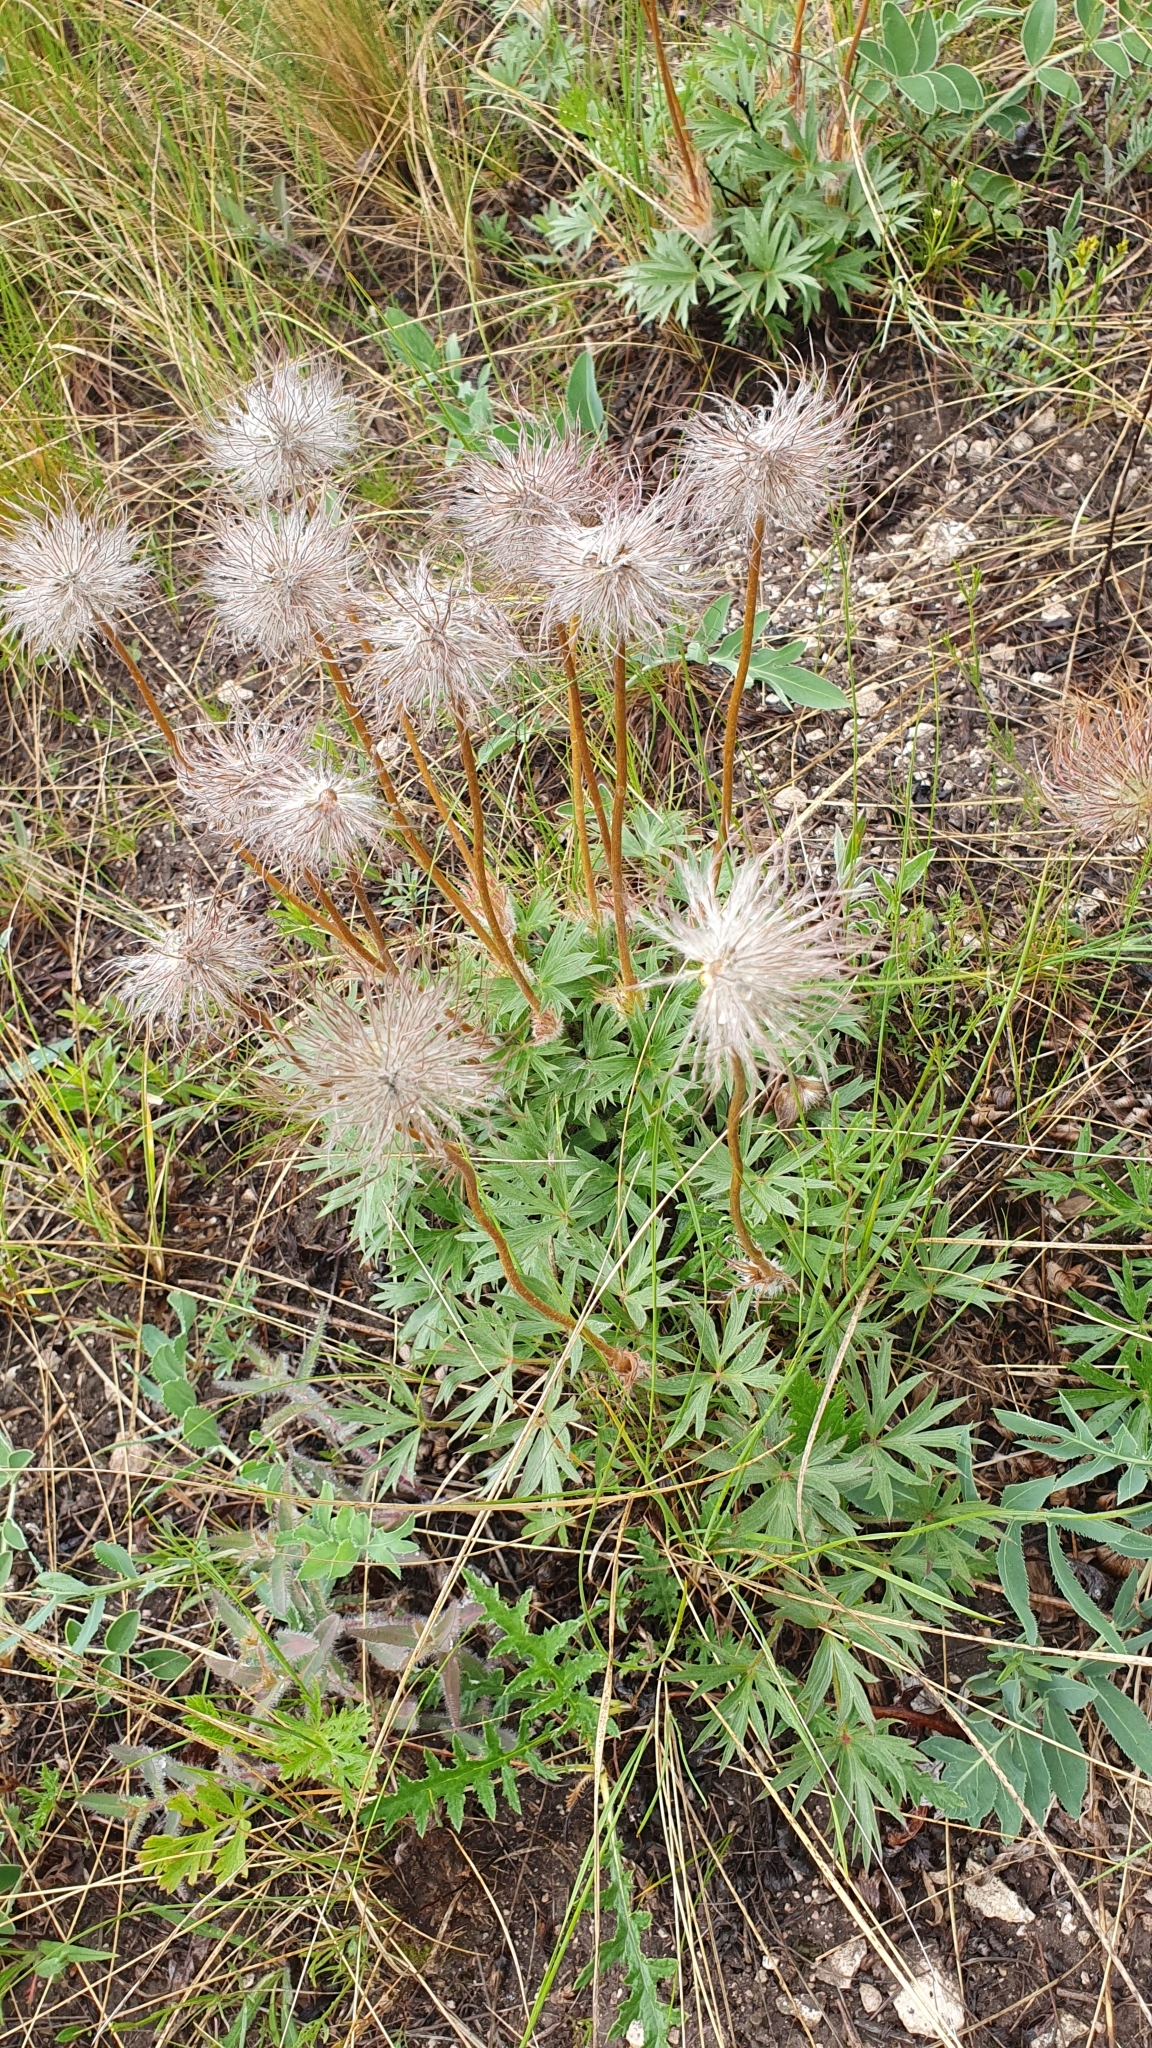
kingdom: Plantae
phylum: Tracheophyta
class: Magnoliopsida
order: Ranunculales
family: Ranunculaceae
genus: Pulsatilla
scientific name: Pulsatilla patens
